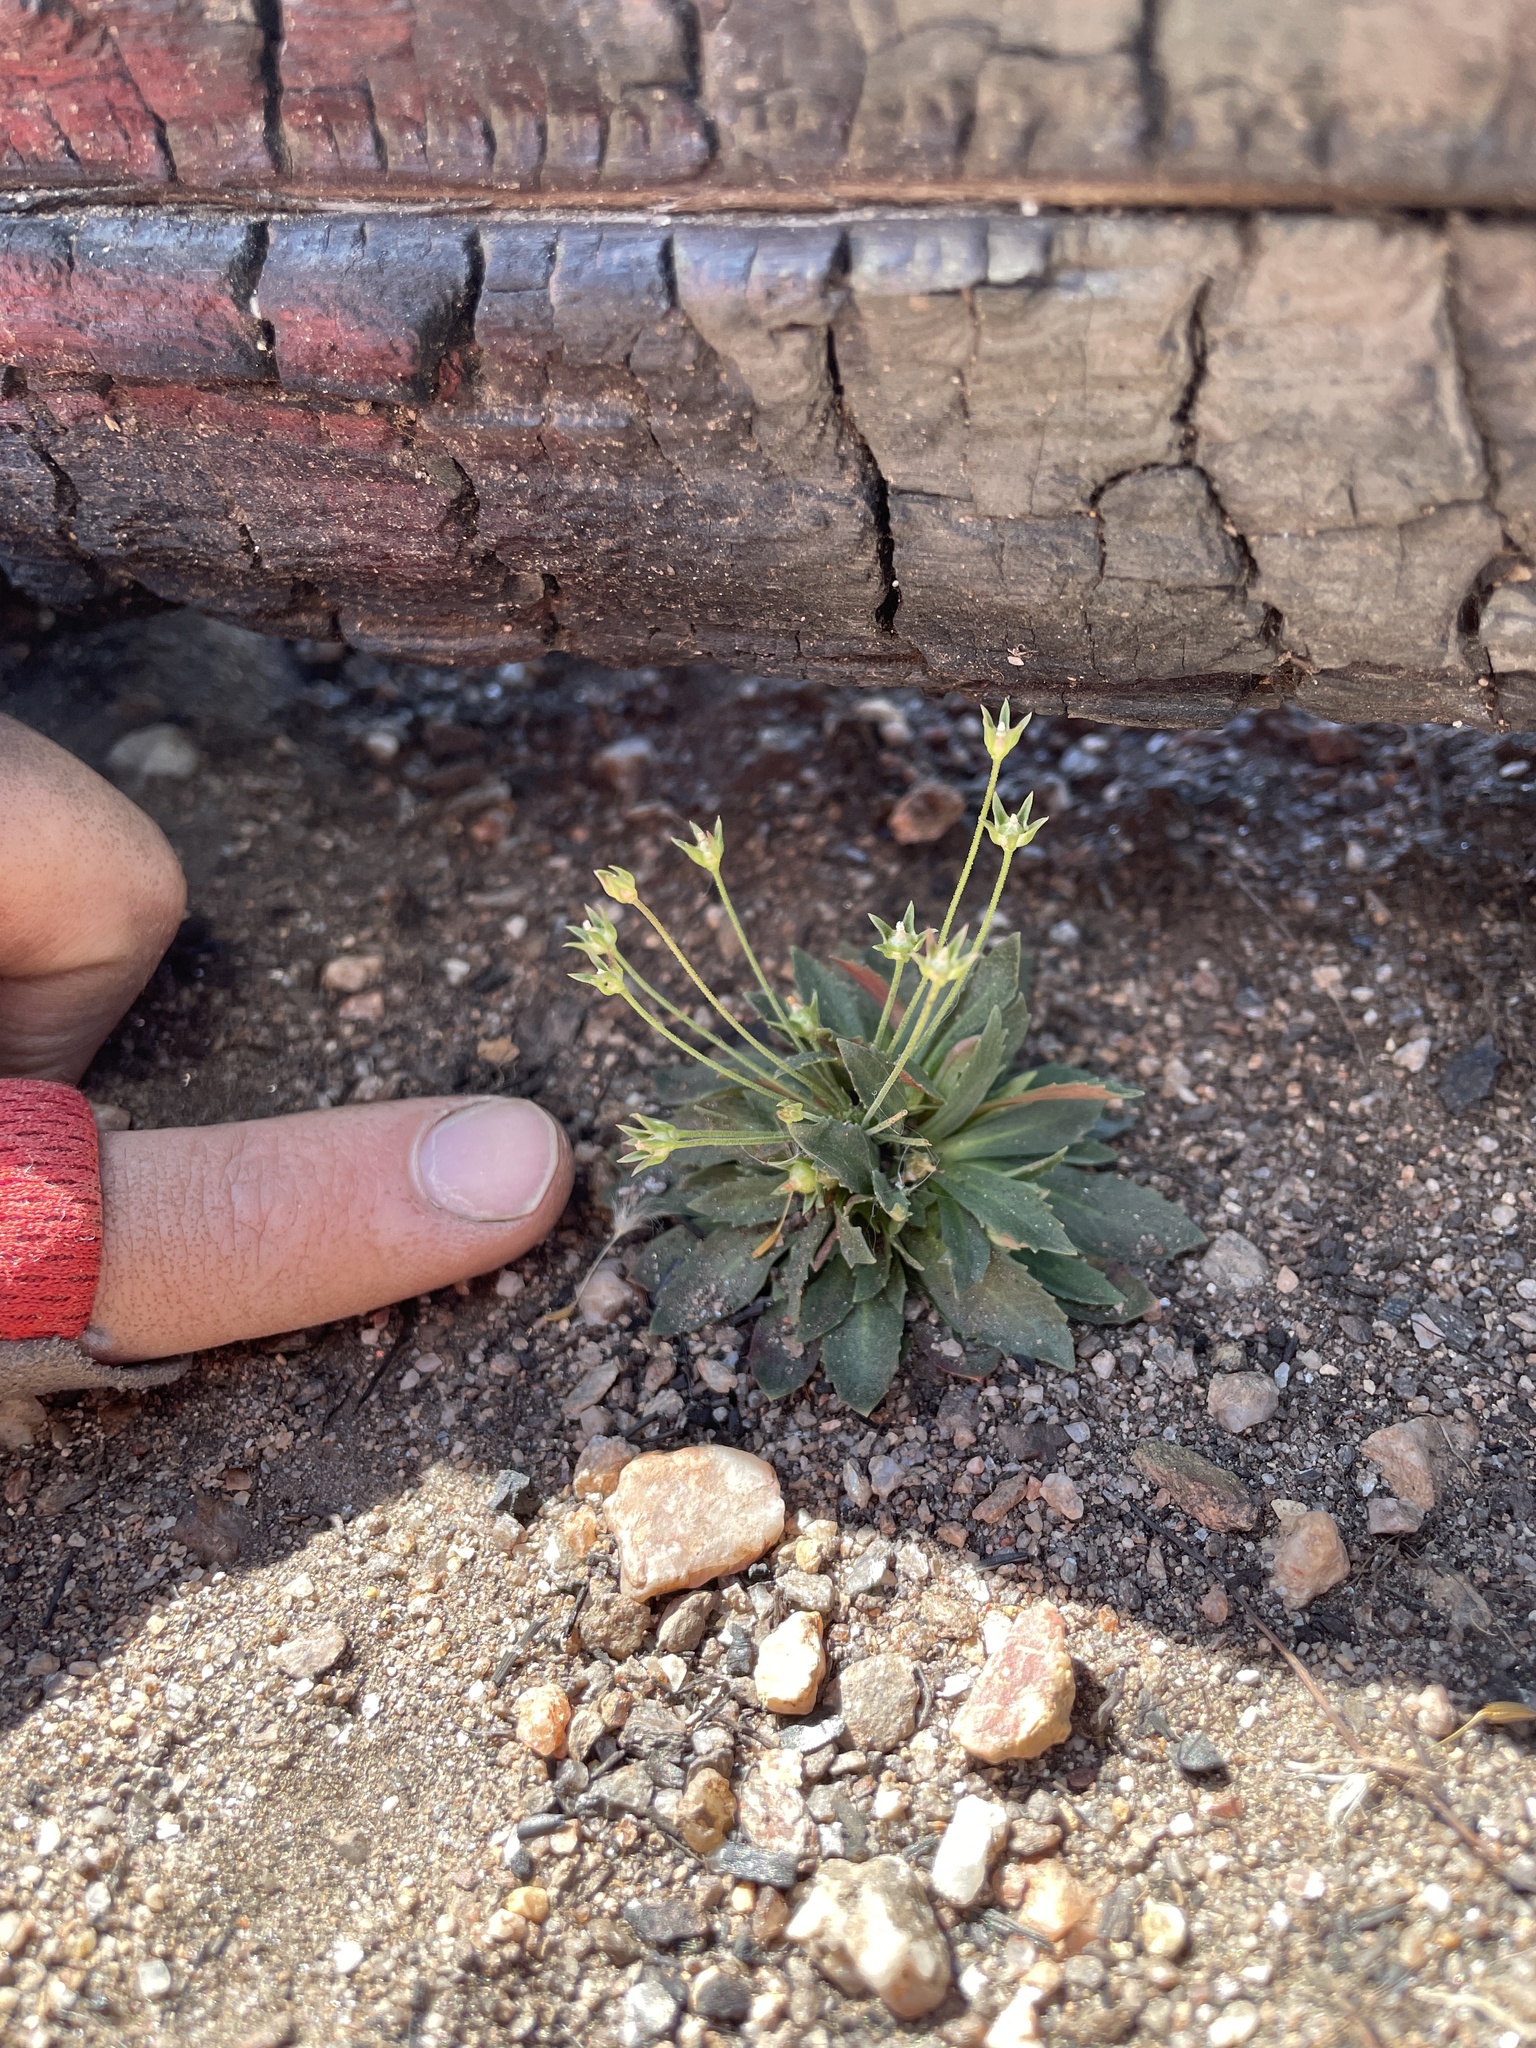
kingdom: Plantae
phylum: Tracheophyta
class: Magnoliopsida
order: Ericales
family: Primulaceae
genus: Androsace
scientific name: Androsace septentrionalis
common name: Hairy northern fairy-candelabra
